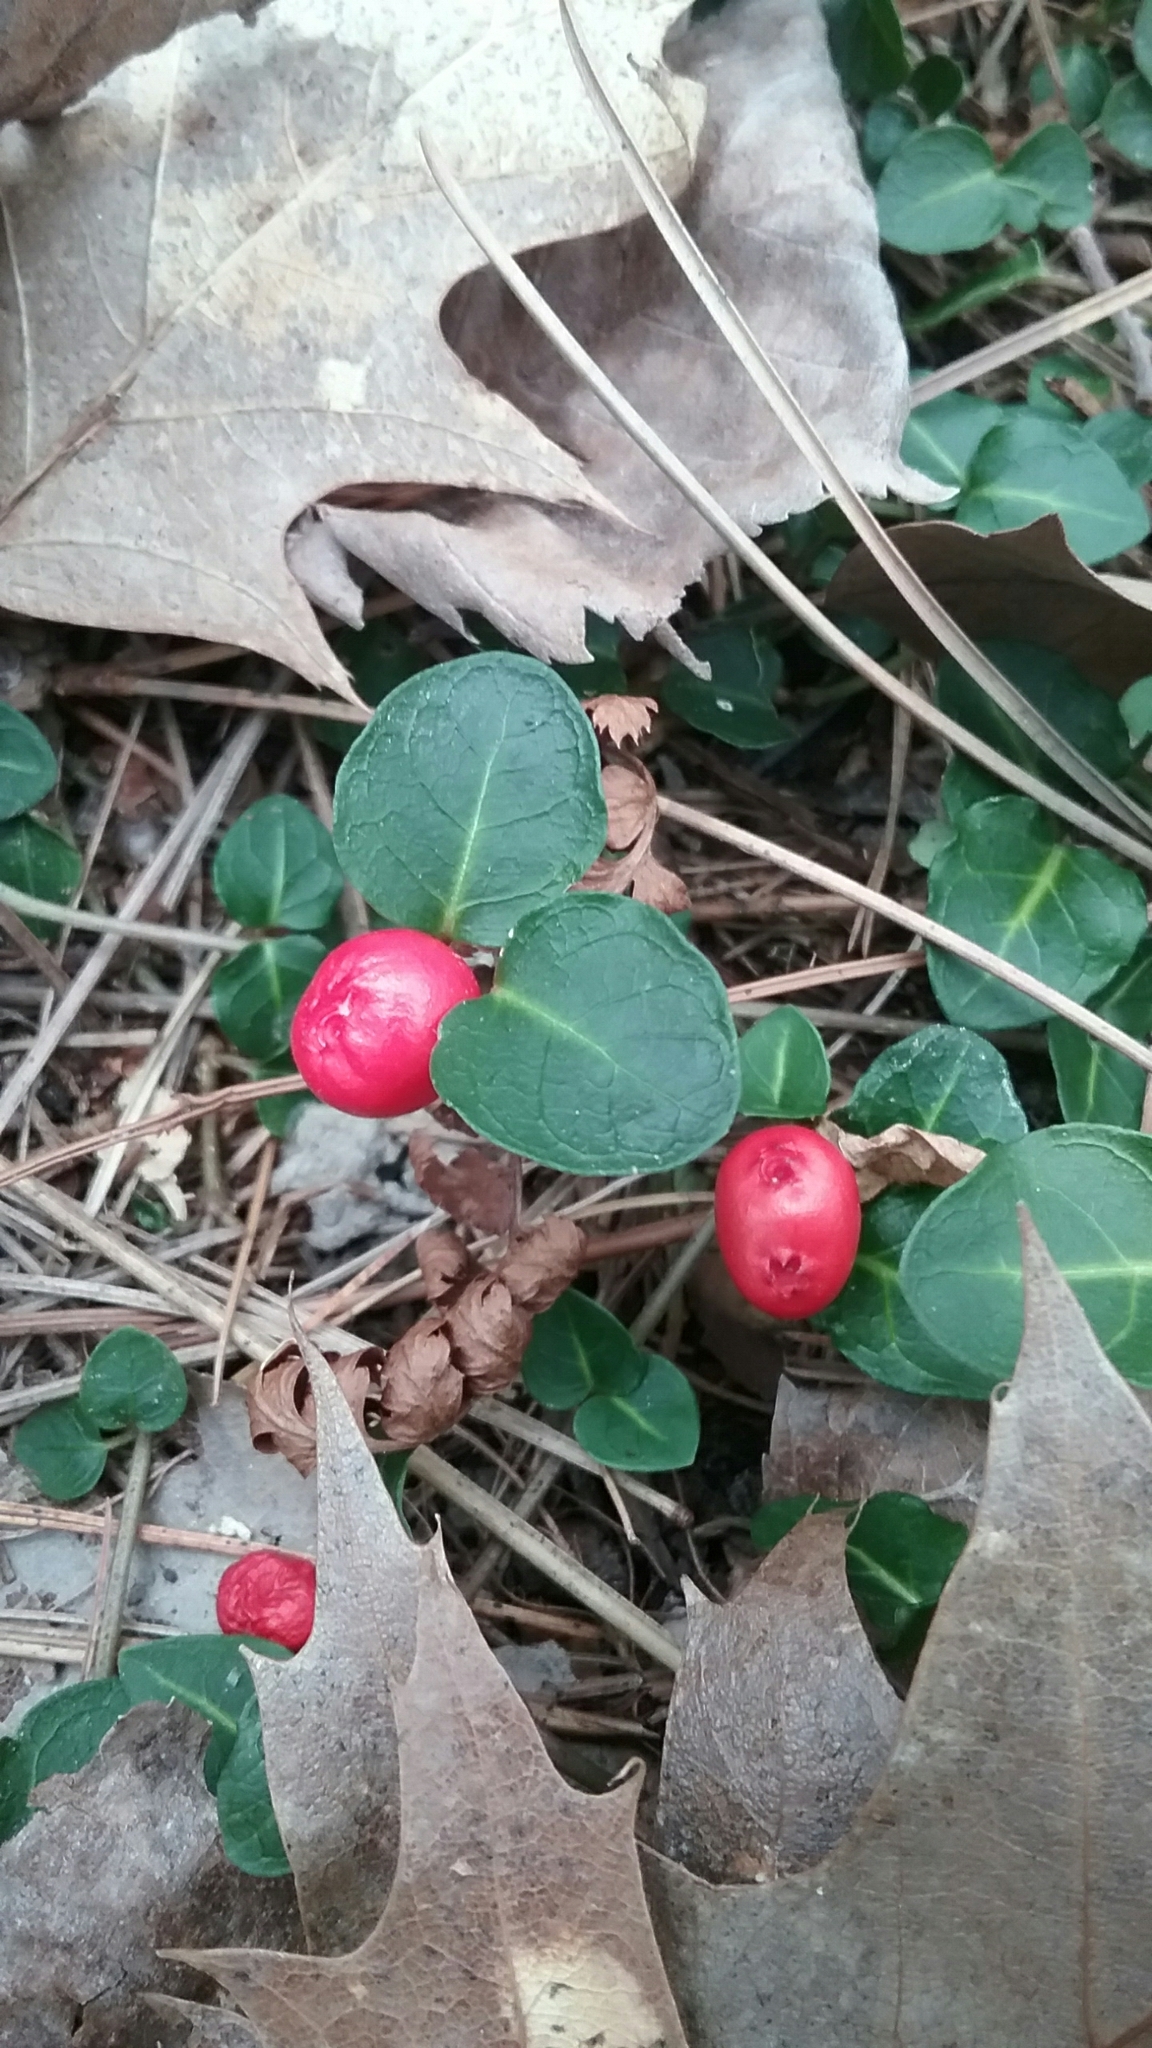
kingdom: Plantae
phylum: Tracheophyta
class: Magnoliopsida
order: Gentianales
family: Rubiaceae
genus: Mitchella
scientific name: Mitchella repens
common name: Partridge-berry
